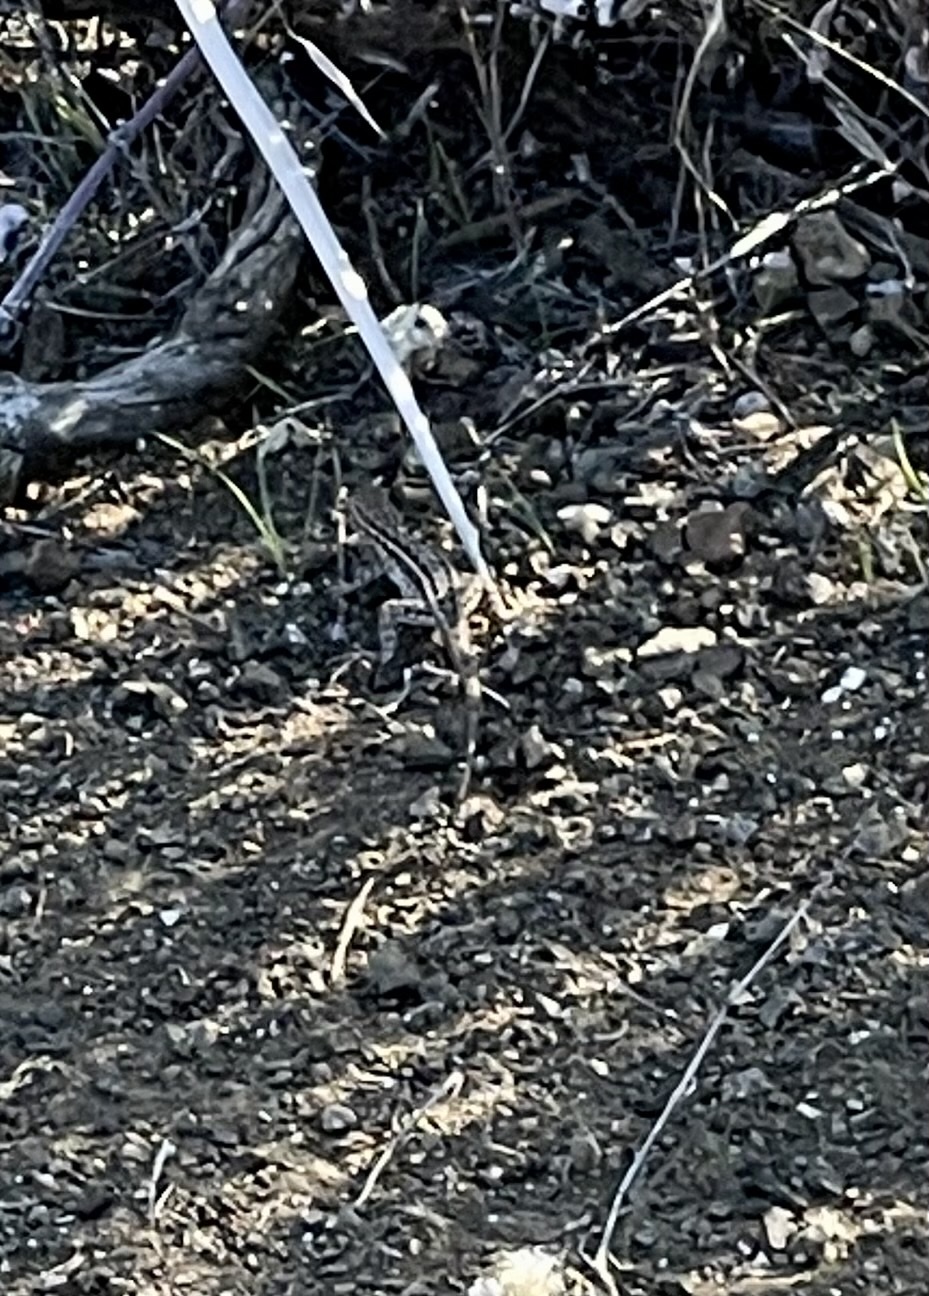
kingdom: Animalia
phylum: Chordata
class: Squamata
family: Phrynosomatidae
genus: Uta
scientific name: Uta stansburiana
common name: Side-blotched lizard
